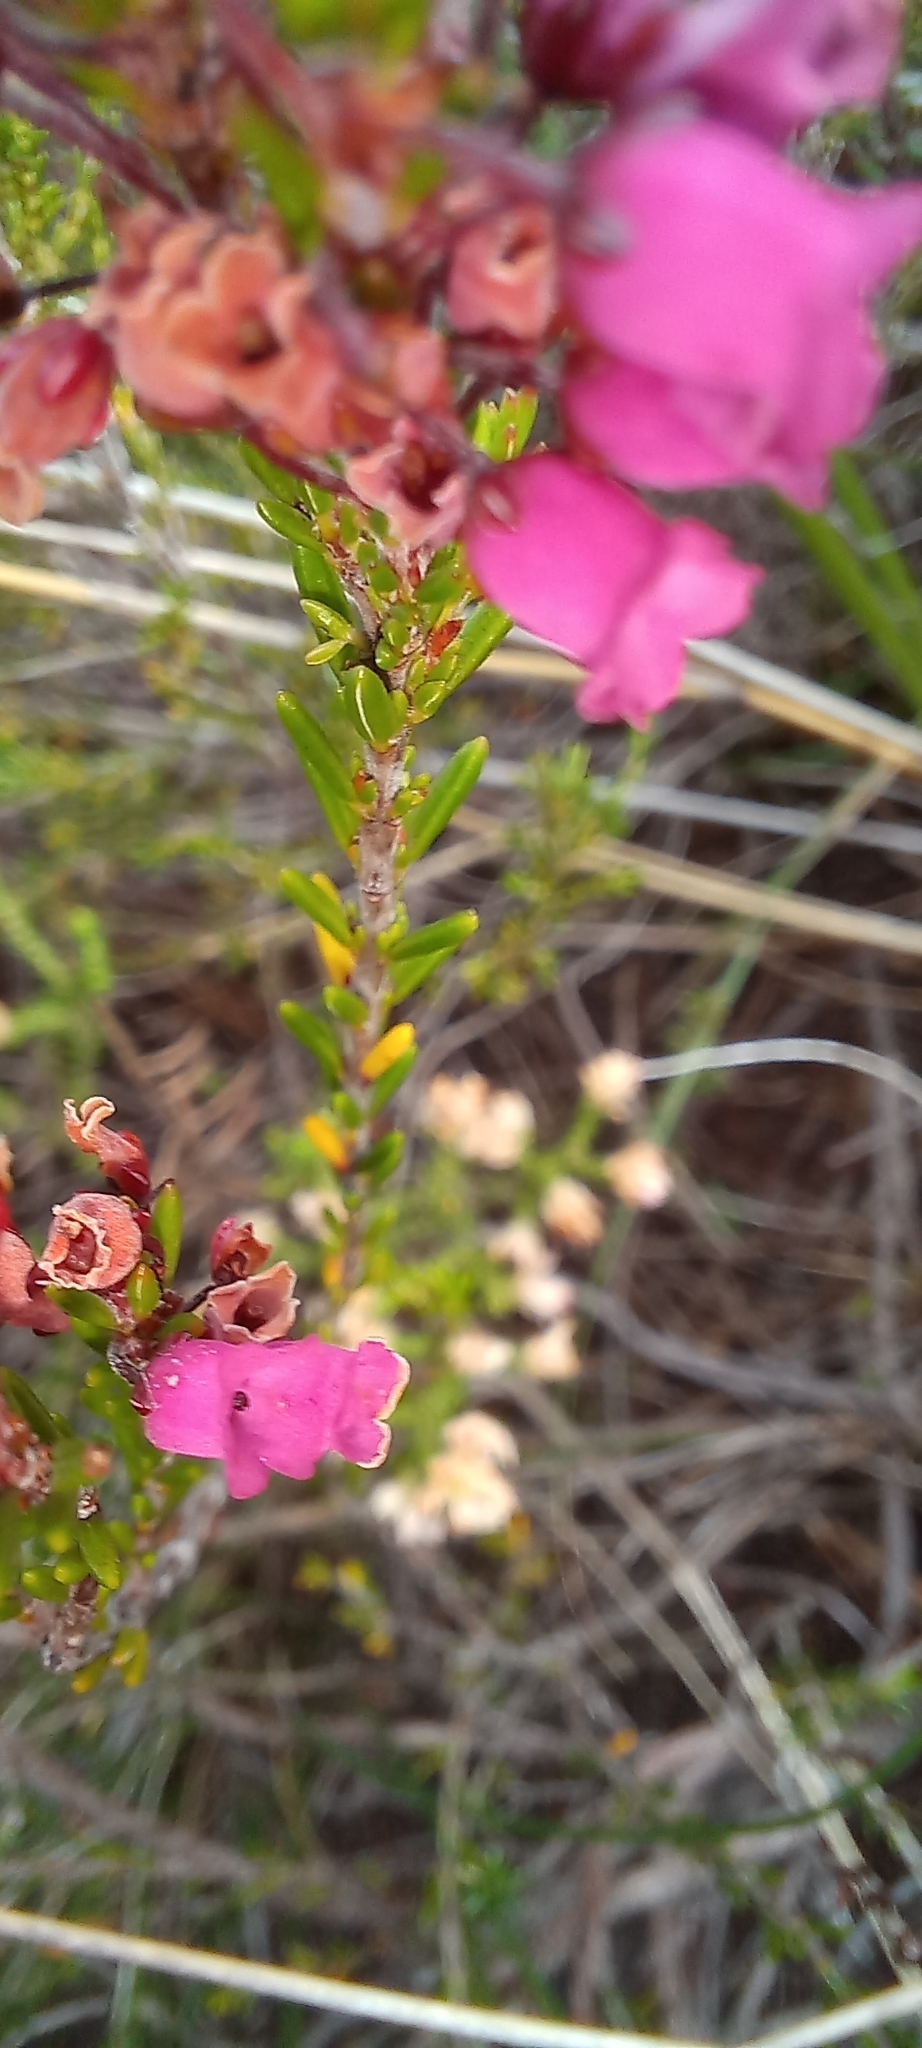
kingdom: Plantae
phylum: Tracheophyta
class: Magnoliopsida
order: Ericales
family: Ericaceae
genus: Erica
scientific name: Erica pulchella
